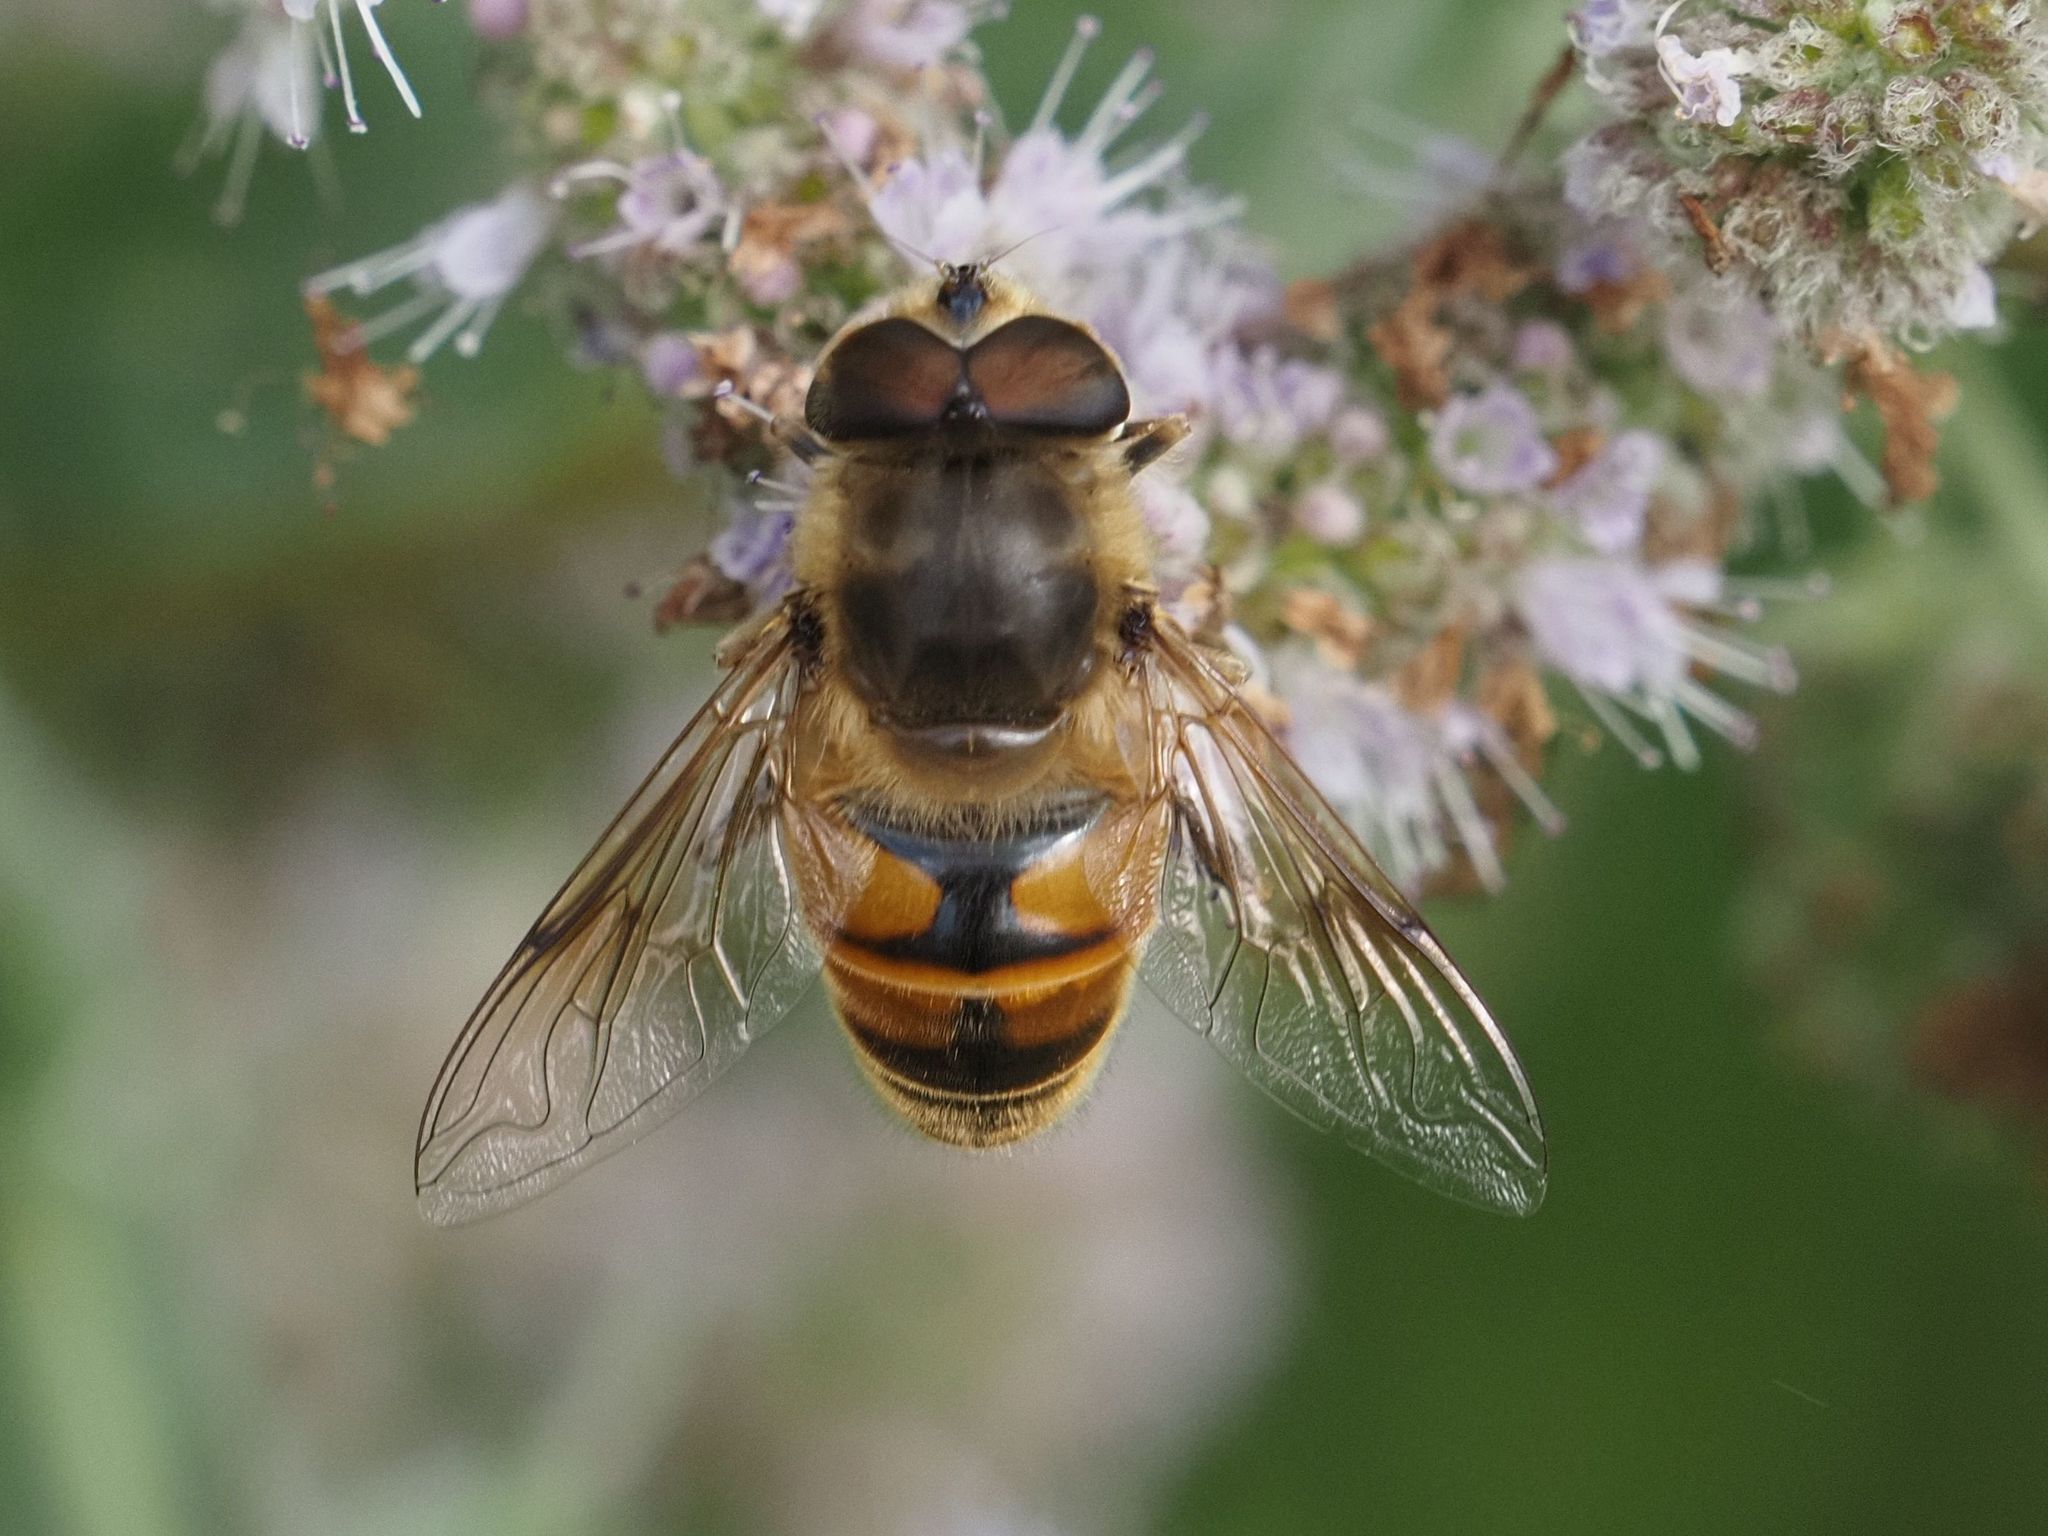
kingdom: Animalia
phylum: Arthropoda
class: Insecta
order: Diptera
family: Syrphidae
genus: Eristalis
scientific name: Eristalis tenax
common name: Drone fly
